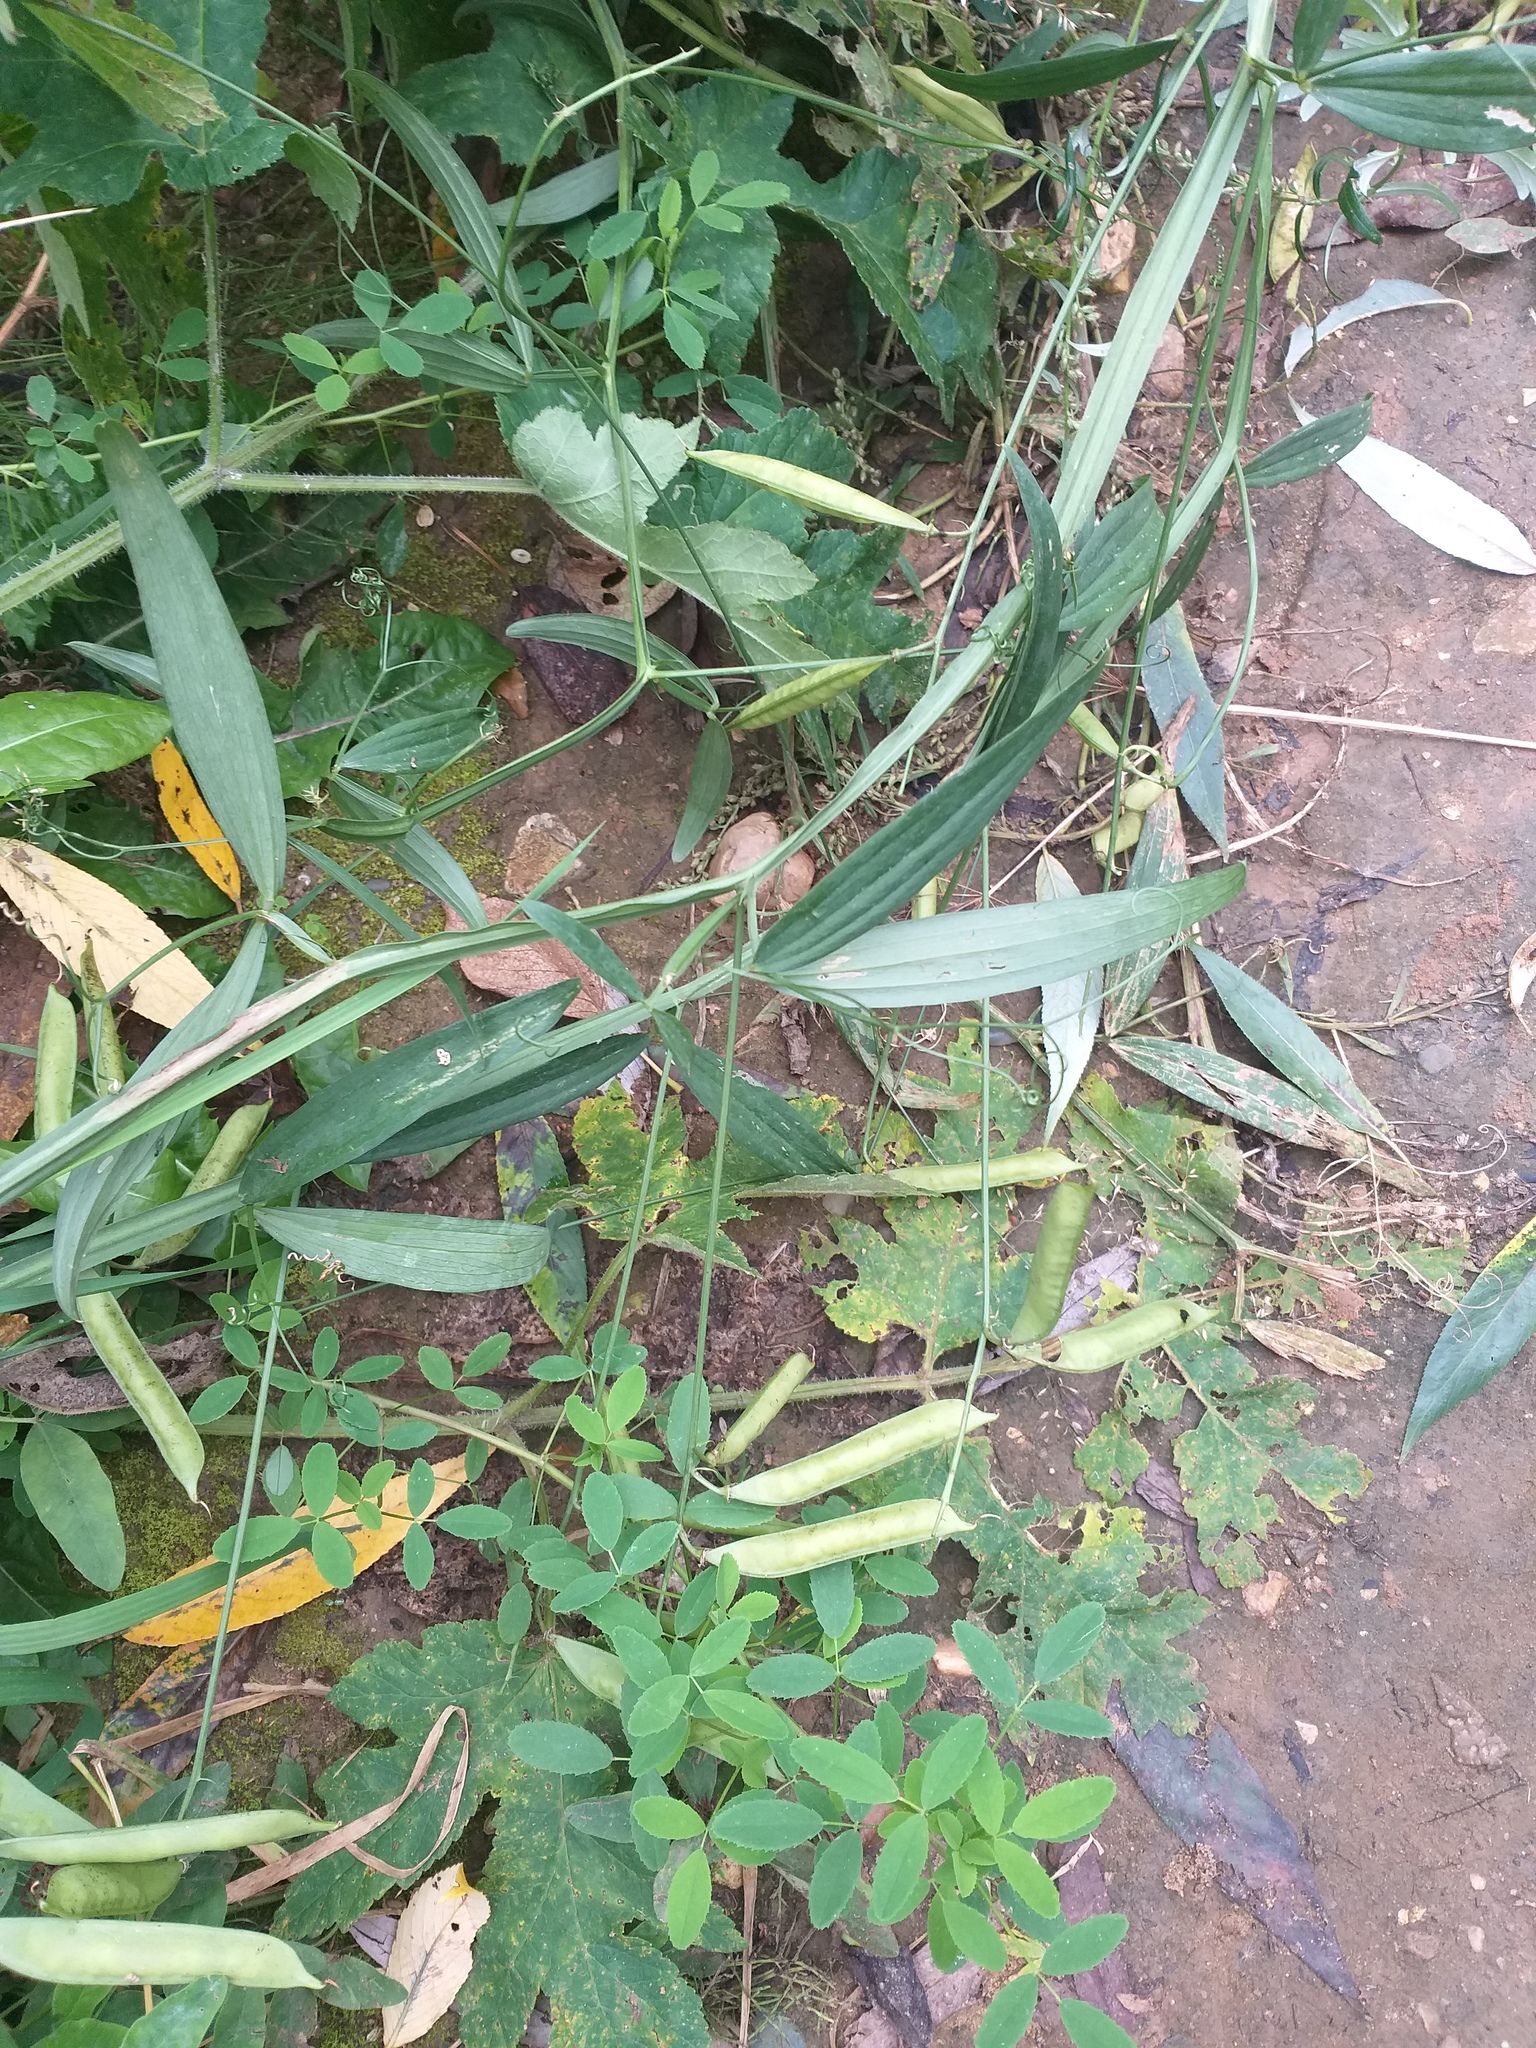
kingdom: Plantae
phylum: Tracheophyta
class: Magnoliopsida
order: Fabales
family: Fabaceae
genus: Lathyrus
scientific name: Lathyrus sylvestris
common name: Flat pea
